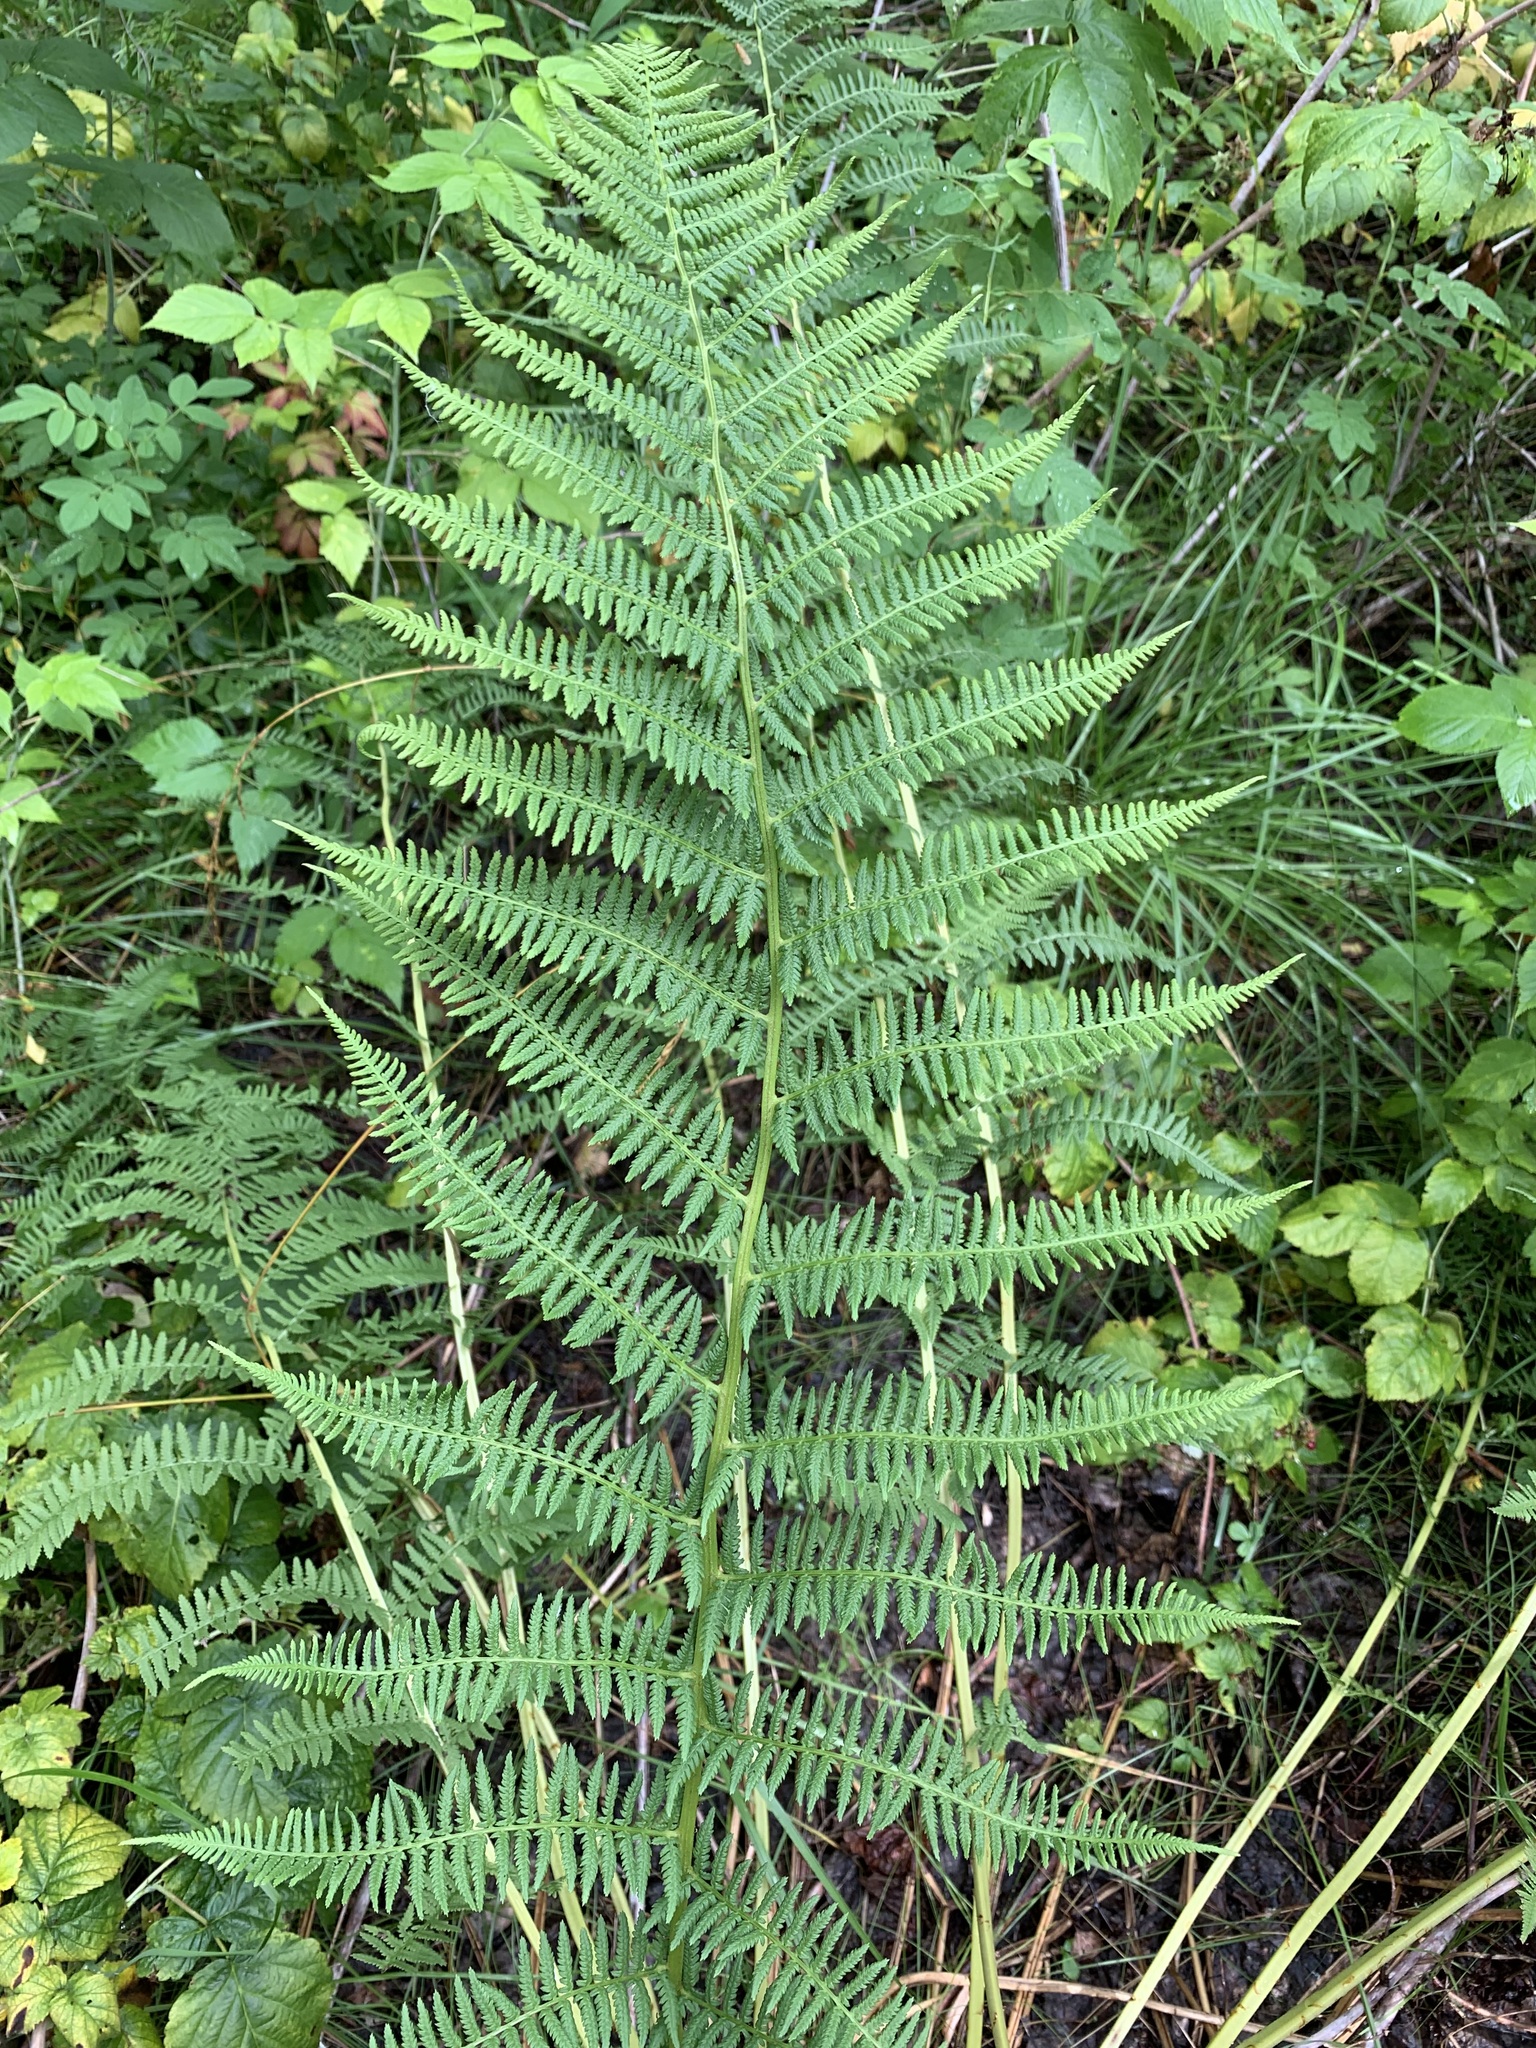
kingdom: Plantae
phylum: Tracheophyta
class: Polypodiopsida
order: Polypodiales
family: Athyriaceae
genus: Athyrium
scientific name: Athyrium filix-femina
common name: Lady fern
